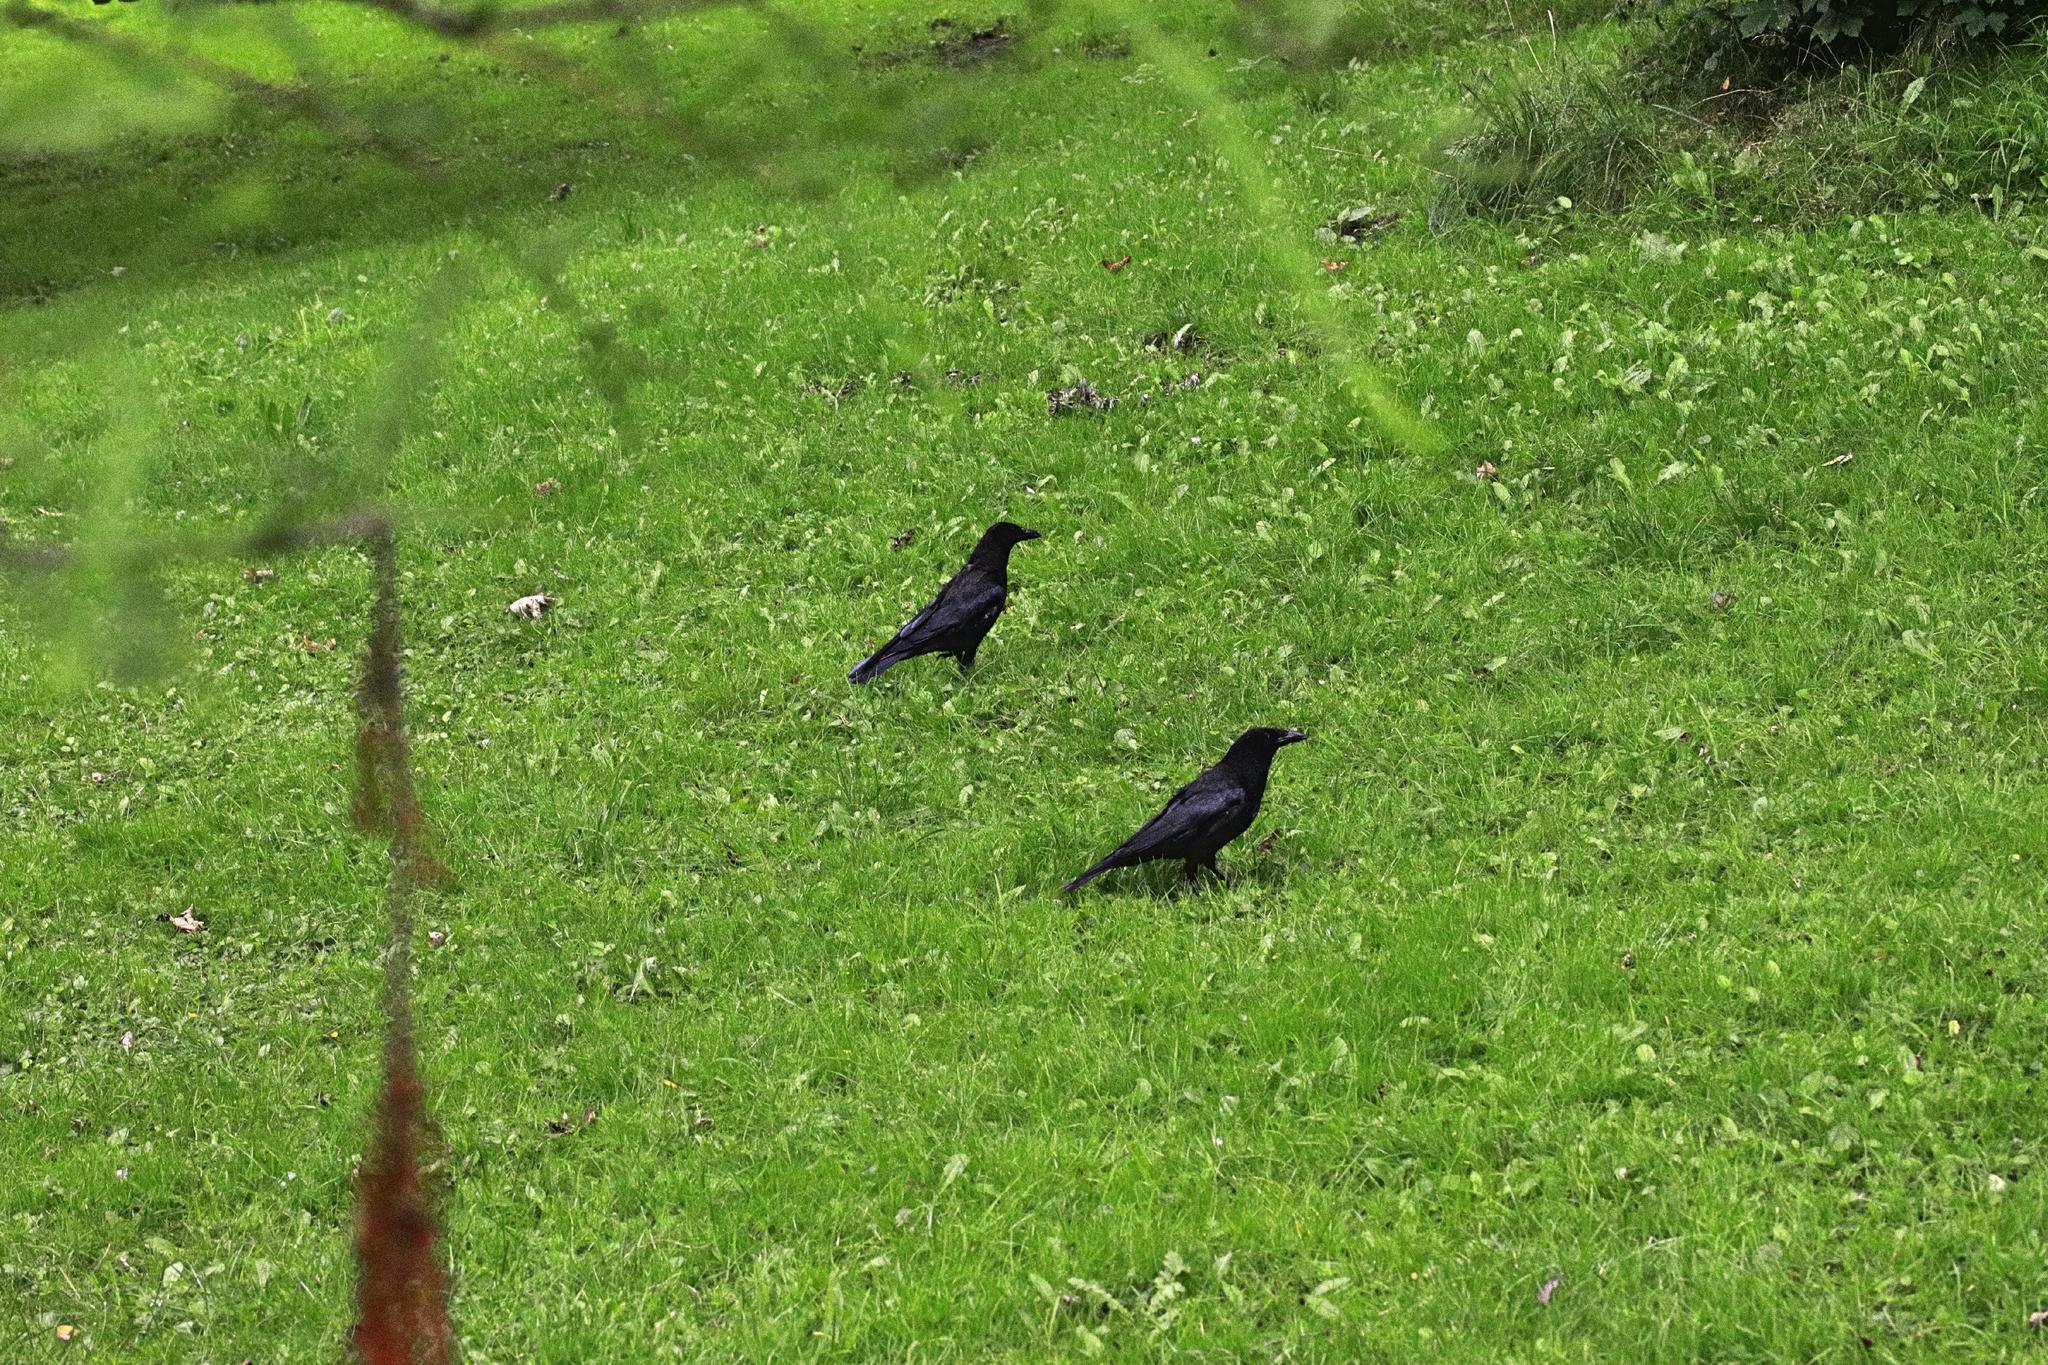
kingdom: Animalia
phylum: Chordata
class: Aves
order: Passeriformes
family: Corvidae
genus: Corvus
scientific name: Corvus corone
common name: Carrion crow
